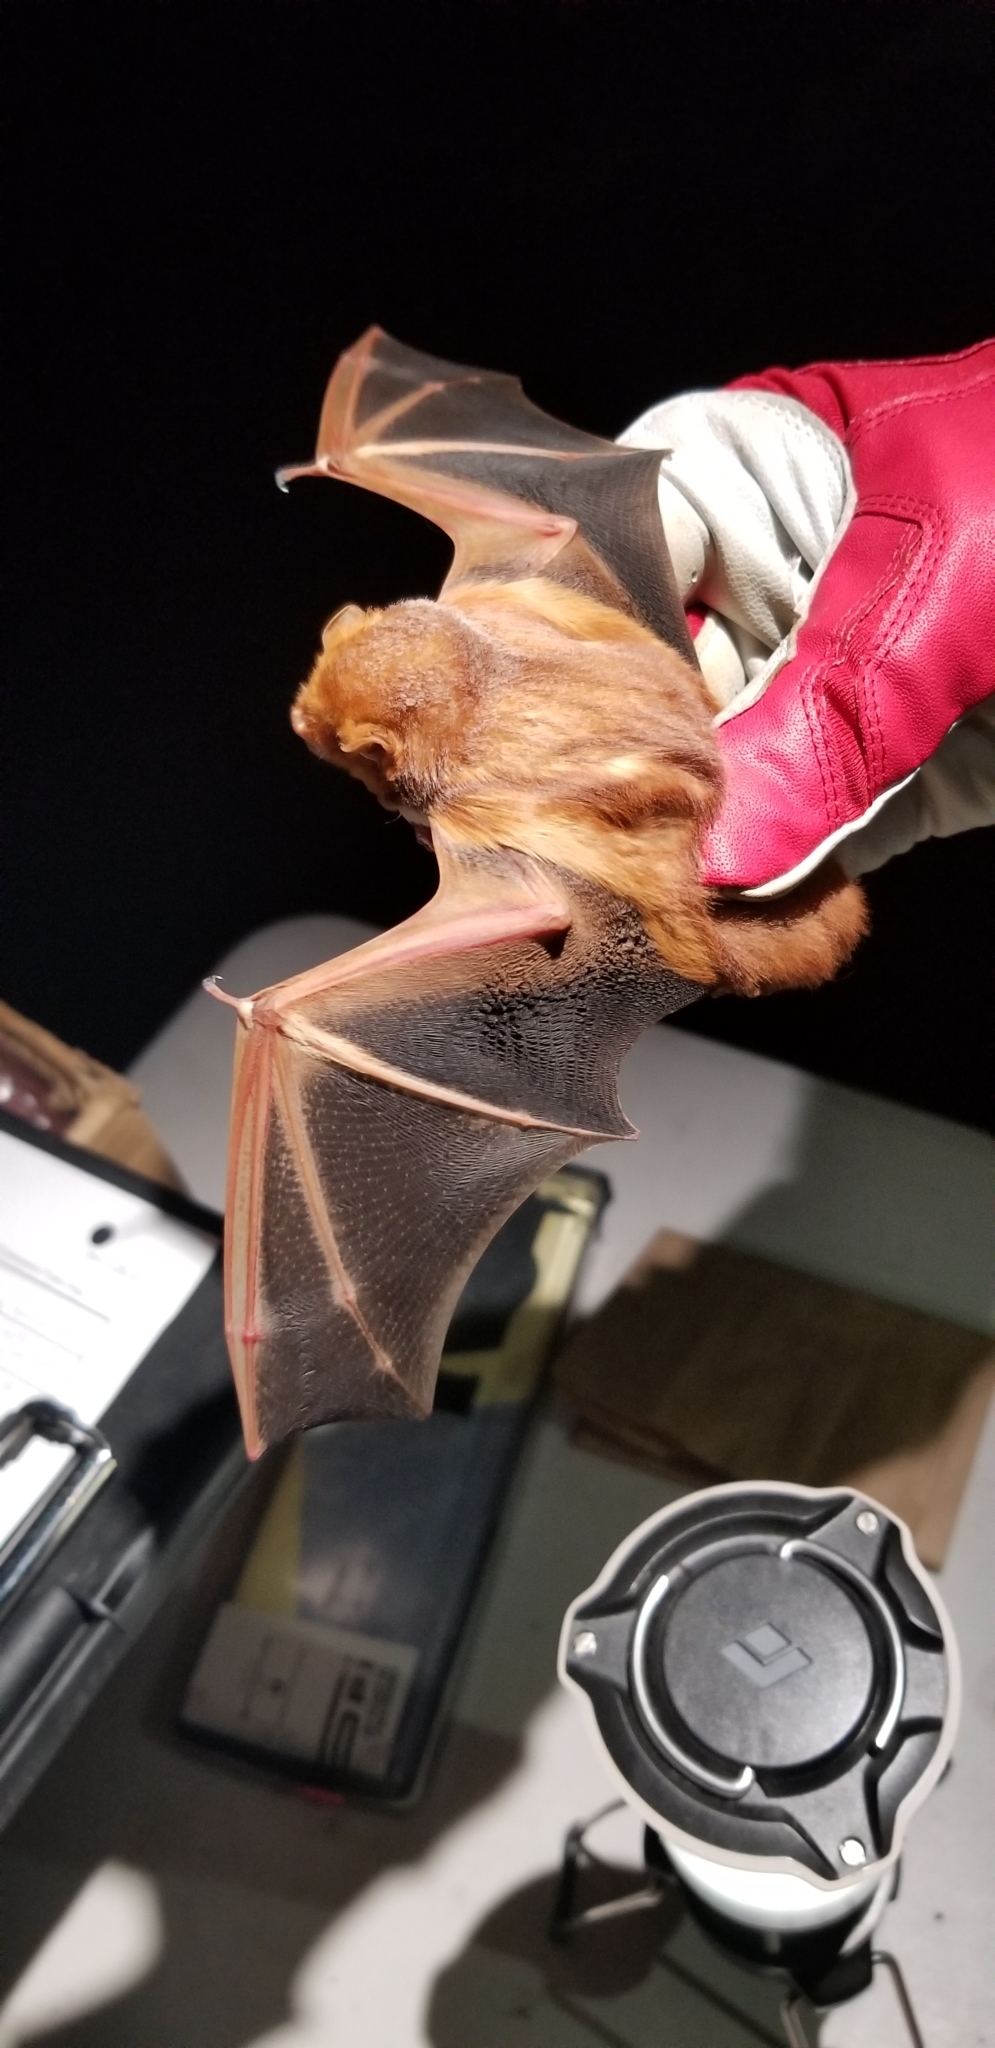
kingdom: Animalia
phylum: Chordata
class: Mammalia
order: Chiroptera
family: Vespertilionidae
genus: Lasiurus
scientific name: Lasiurus borealis
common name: Eastern red bat
